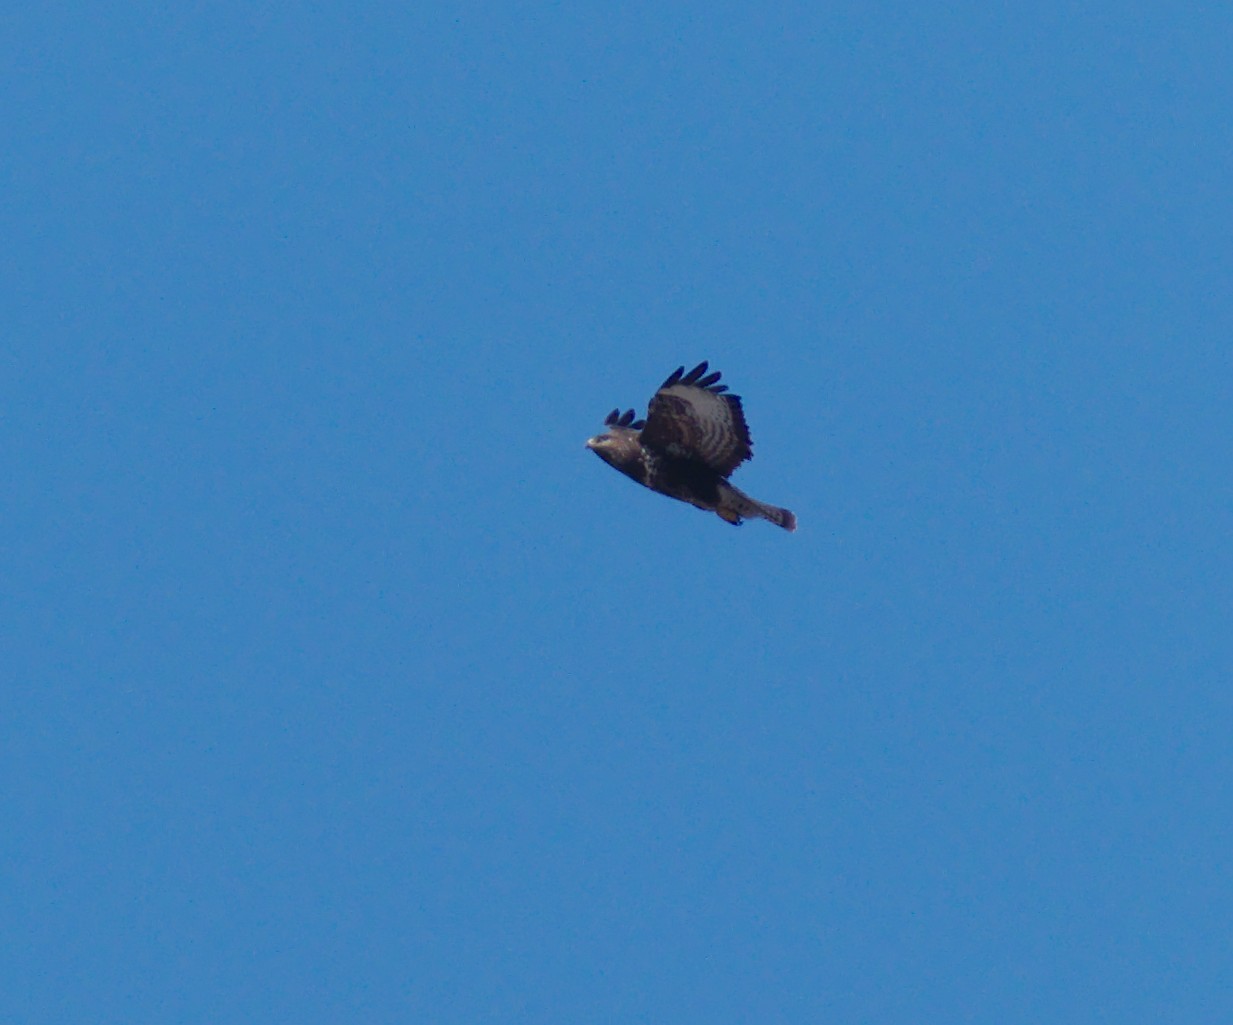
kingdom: Animalia
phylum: Chordata
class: Aves
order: Accipitriformes
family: Accipitridae
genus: Buteo
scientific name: Buteo buteo
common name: Common buzzard
